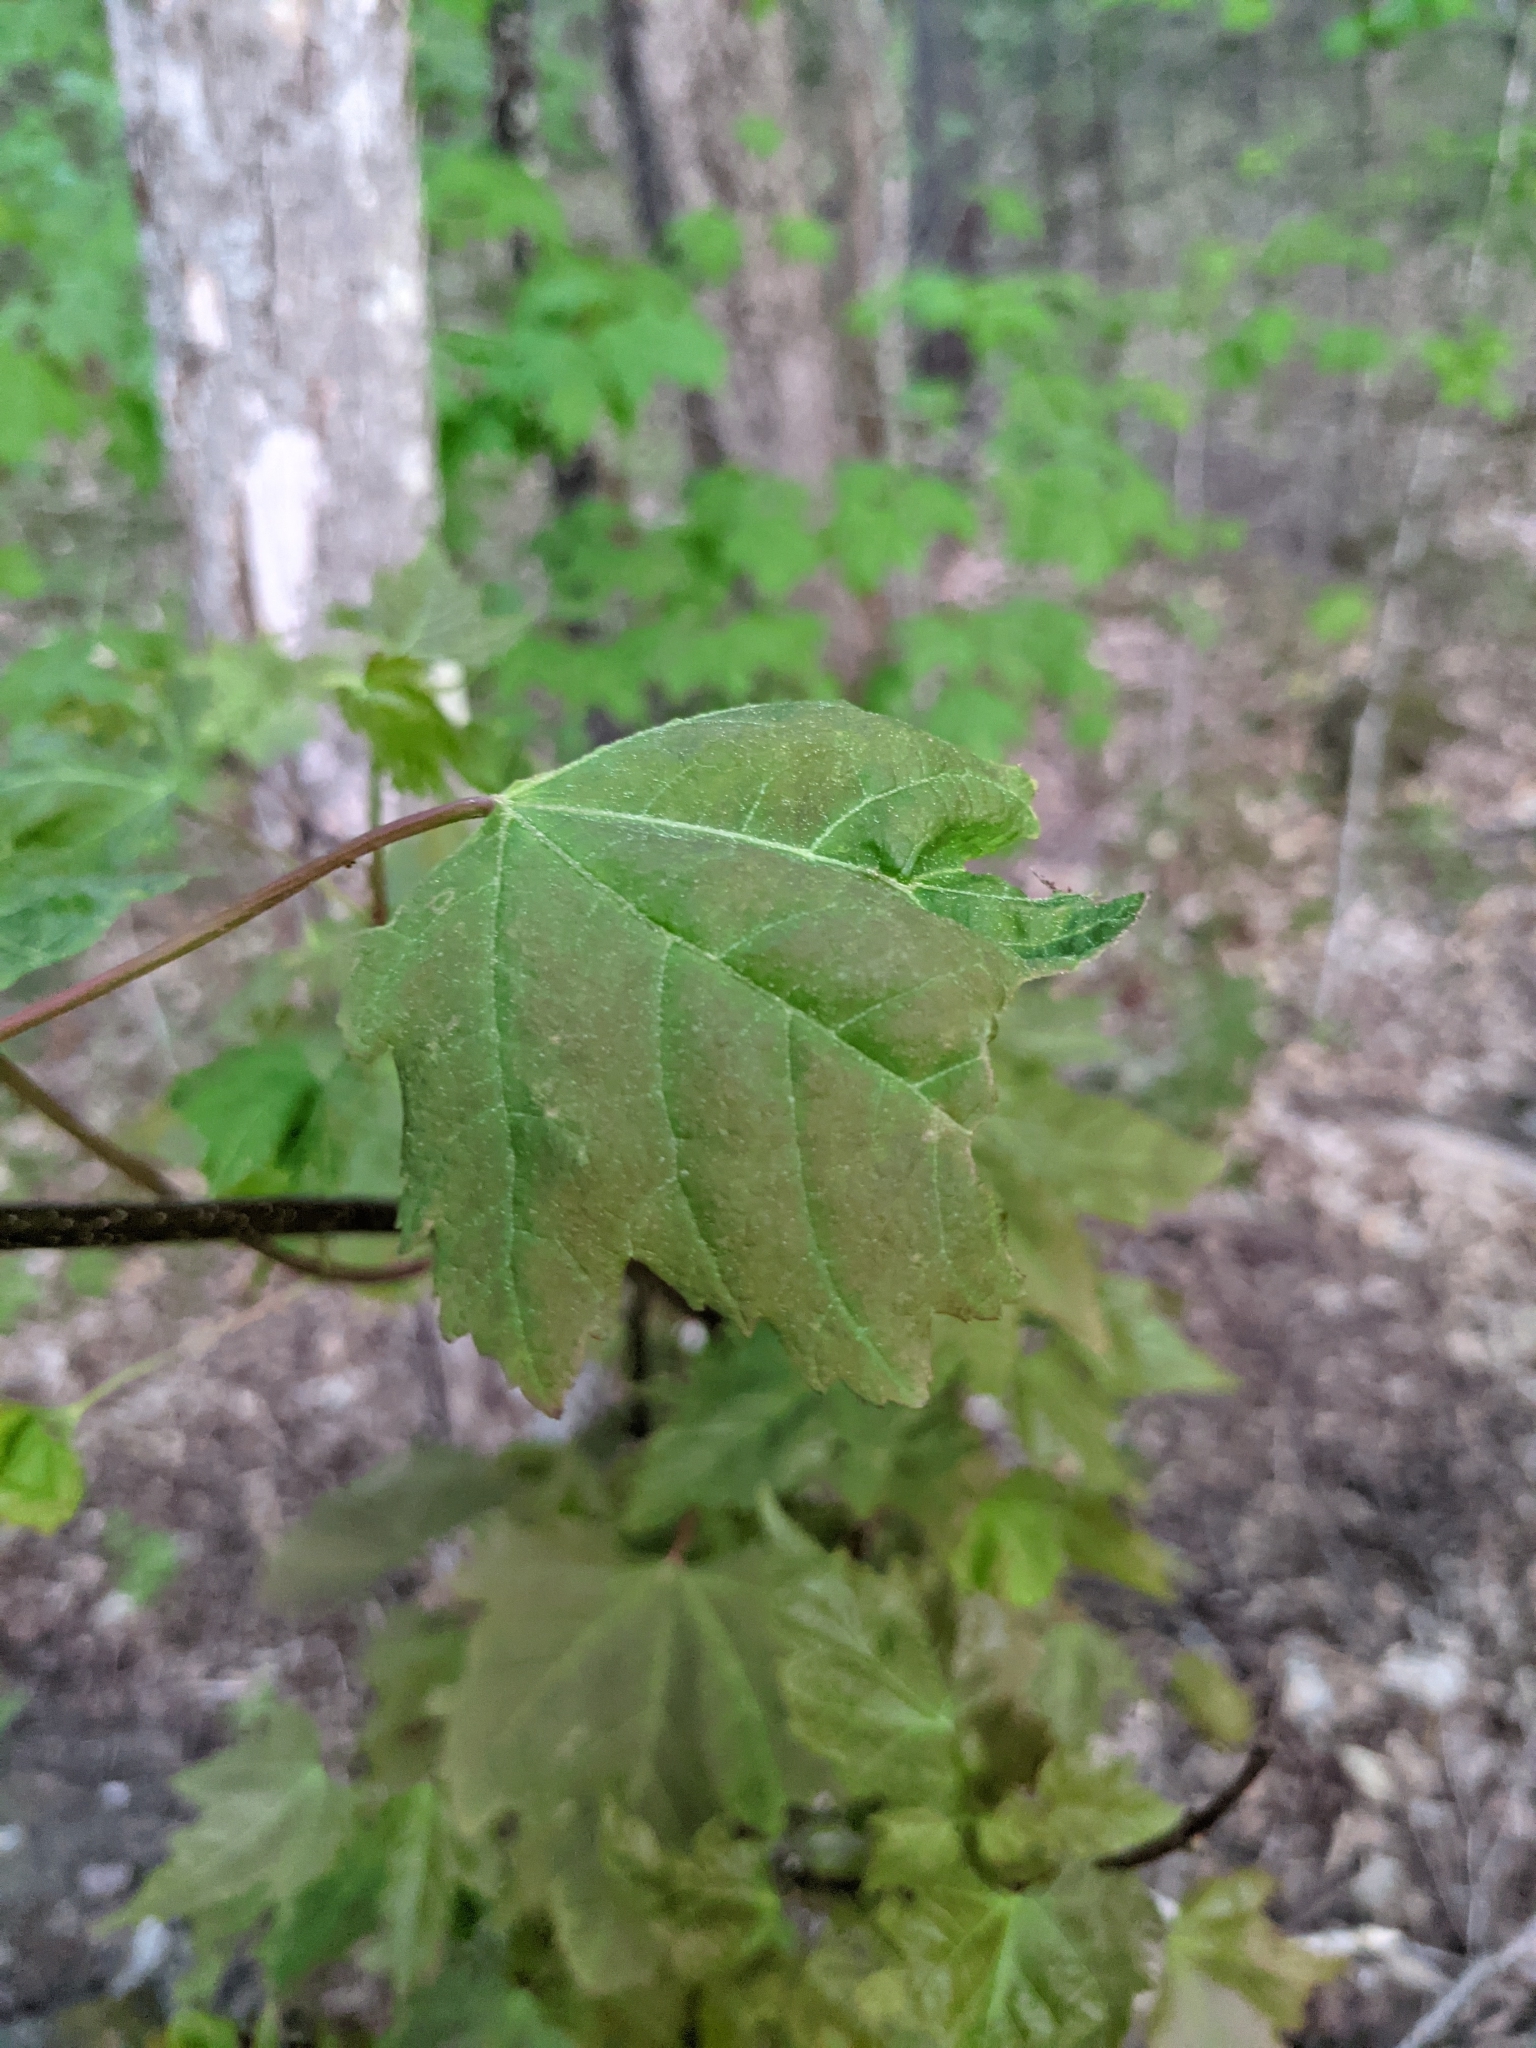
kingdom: Plantae
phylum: Tracheophyta
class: Magnoliopsida
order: Sapindales
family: Sapindaceae
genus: Acer
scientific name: Acer rubrum
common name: Red maple
